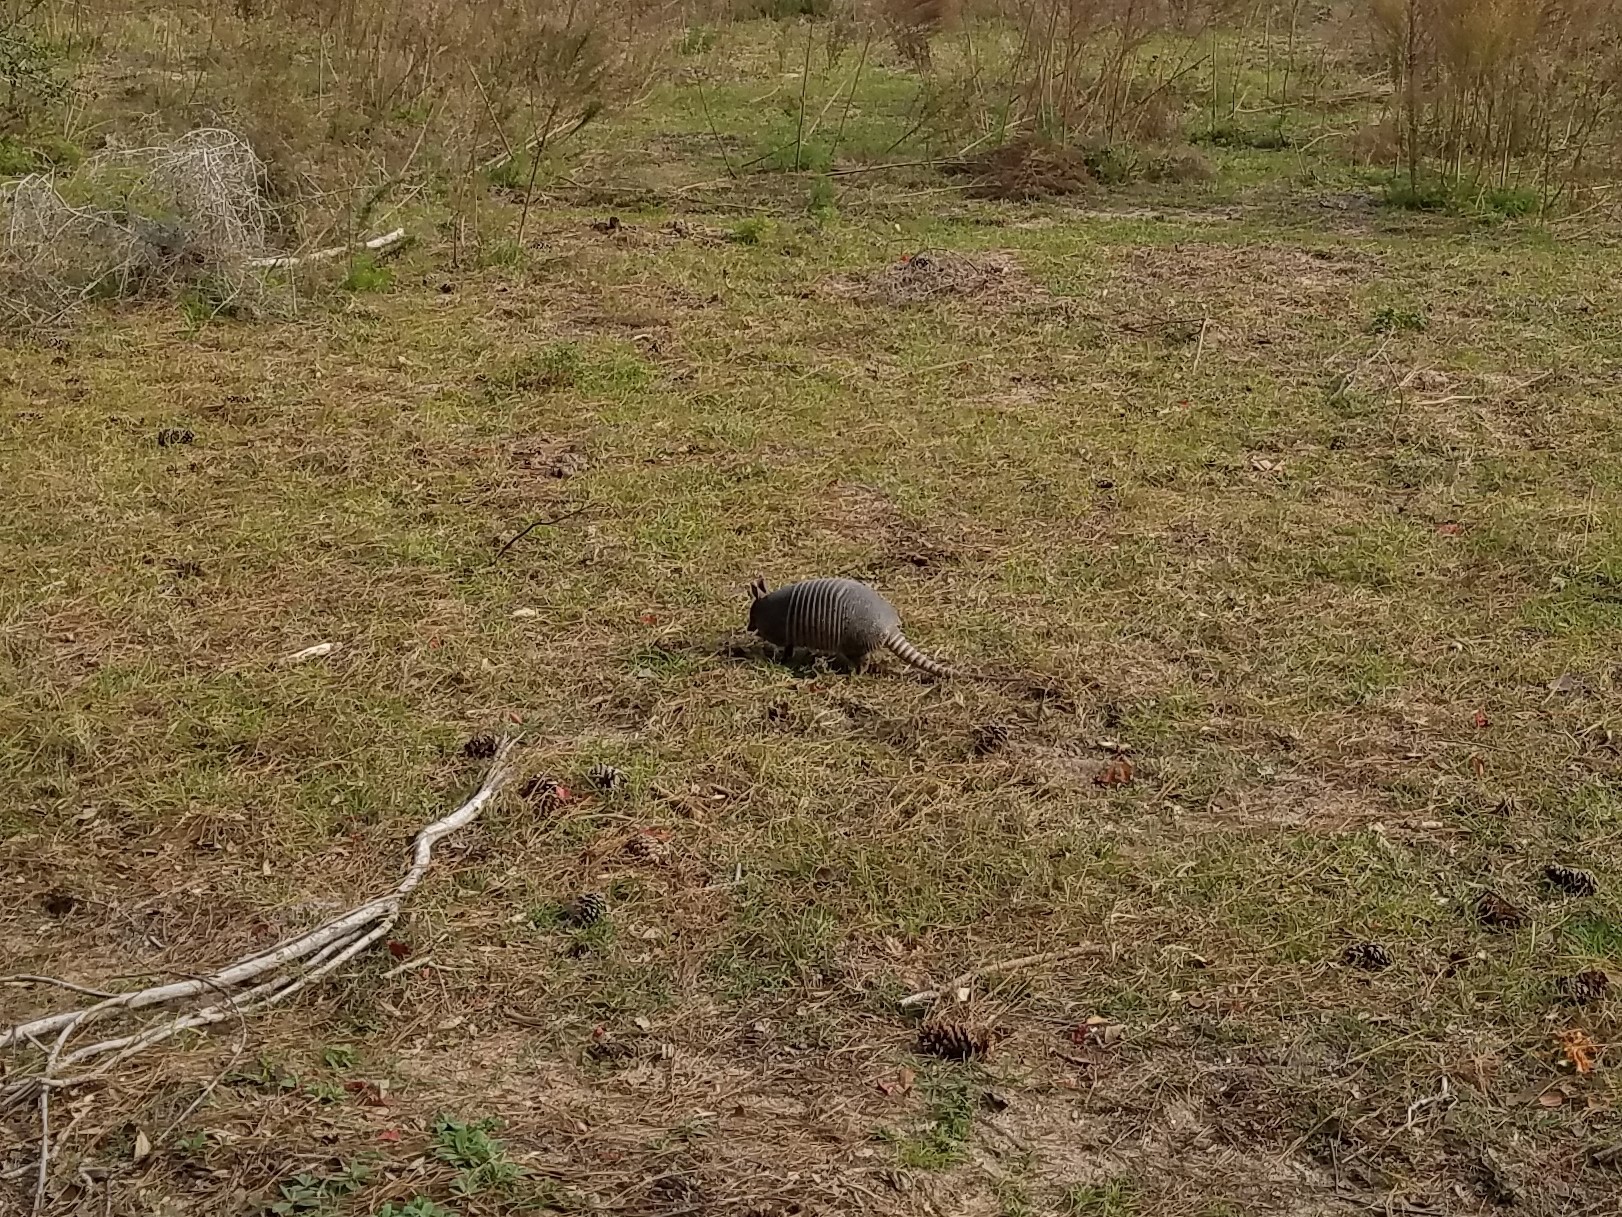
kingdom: Animalia
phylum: Chordata
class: Mammalia
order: Cingulata
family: Dasypodidae
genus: Dasypus
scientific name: Dasypus novemcinctus
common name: Nine-banded armadillo
